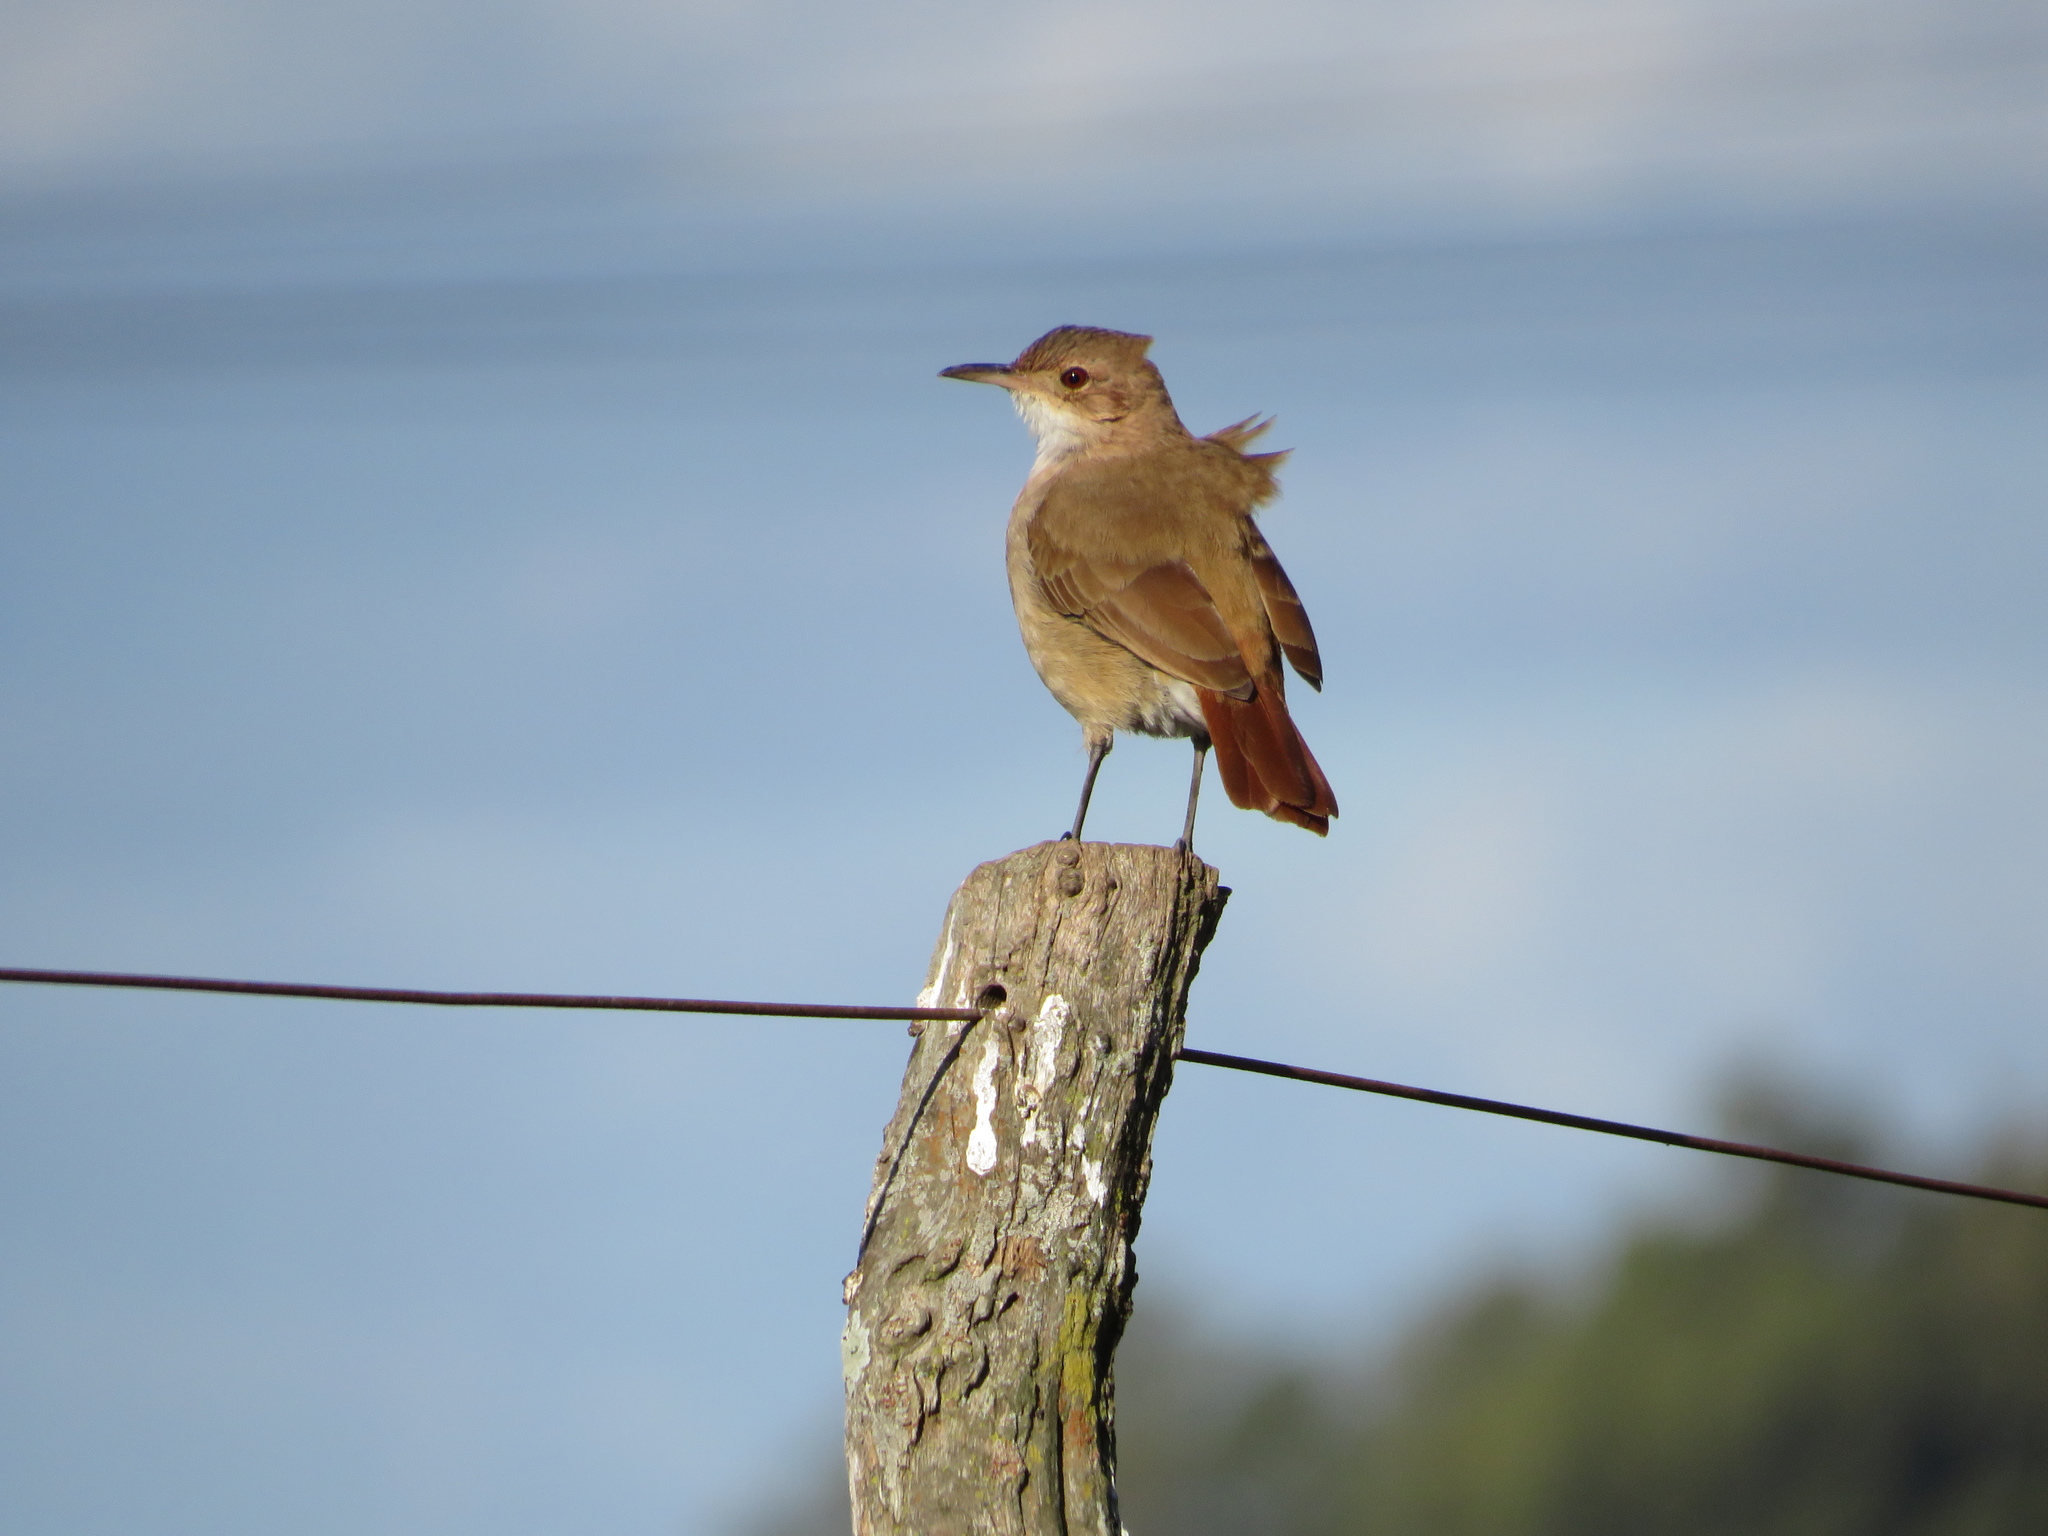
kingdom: Animalia
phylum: Chordata
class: Aves
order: Passeriformes
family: Furnariidae
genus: Furnarius
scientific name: Furnarius rufus
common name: Rufous hornero
